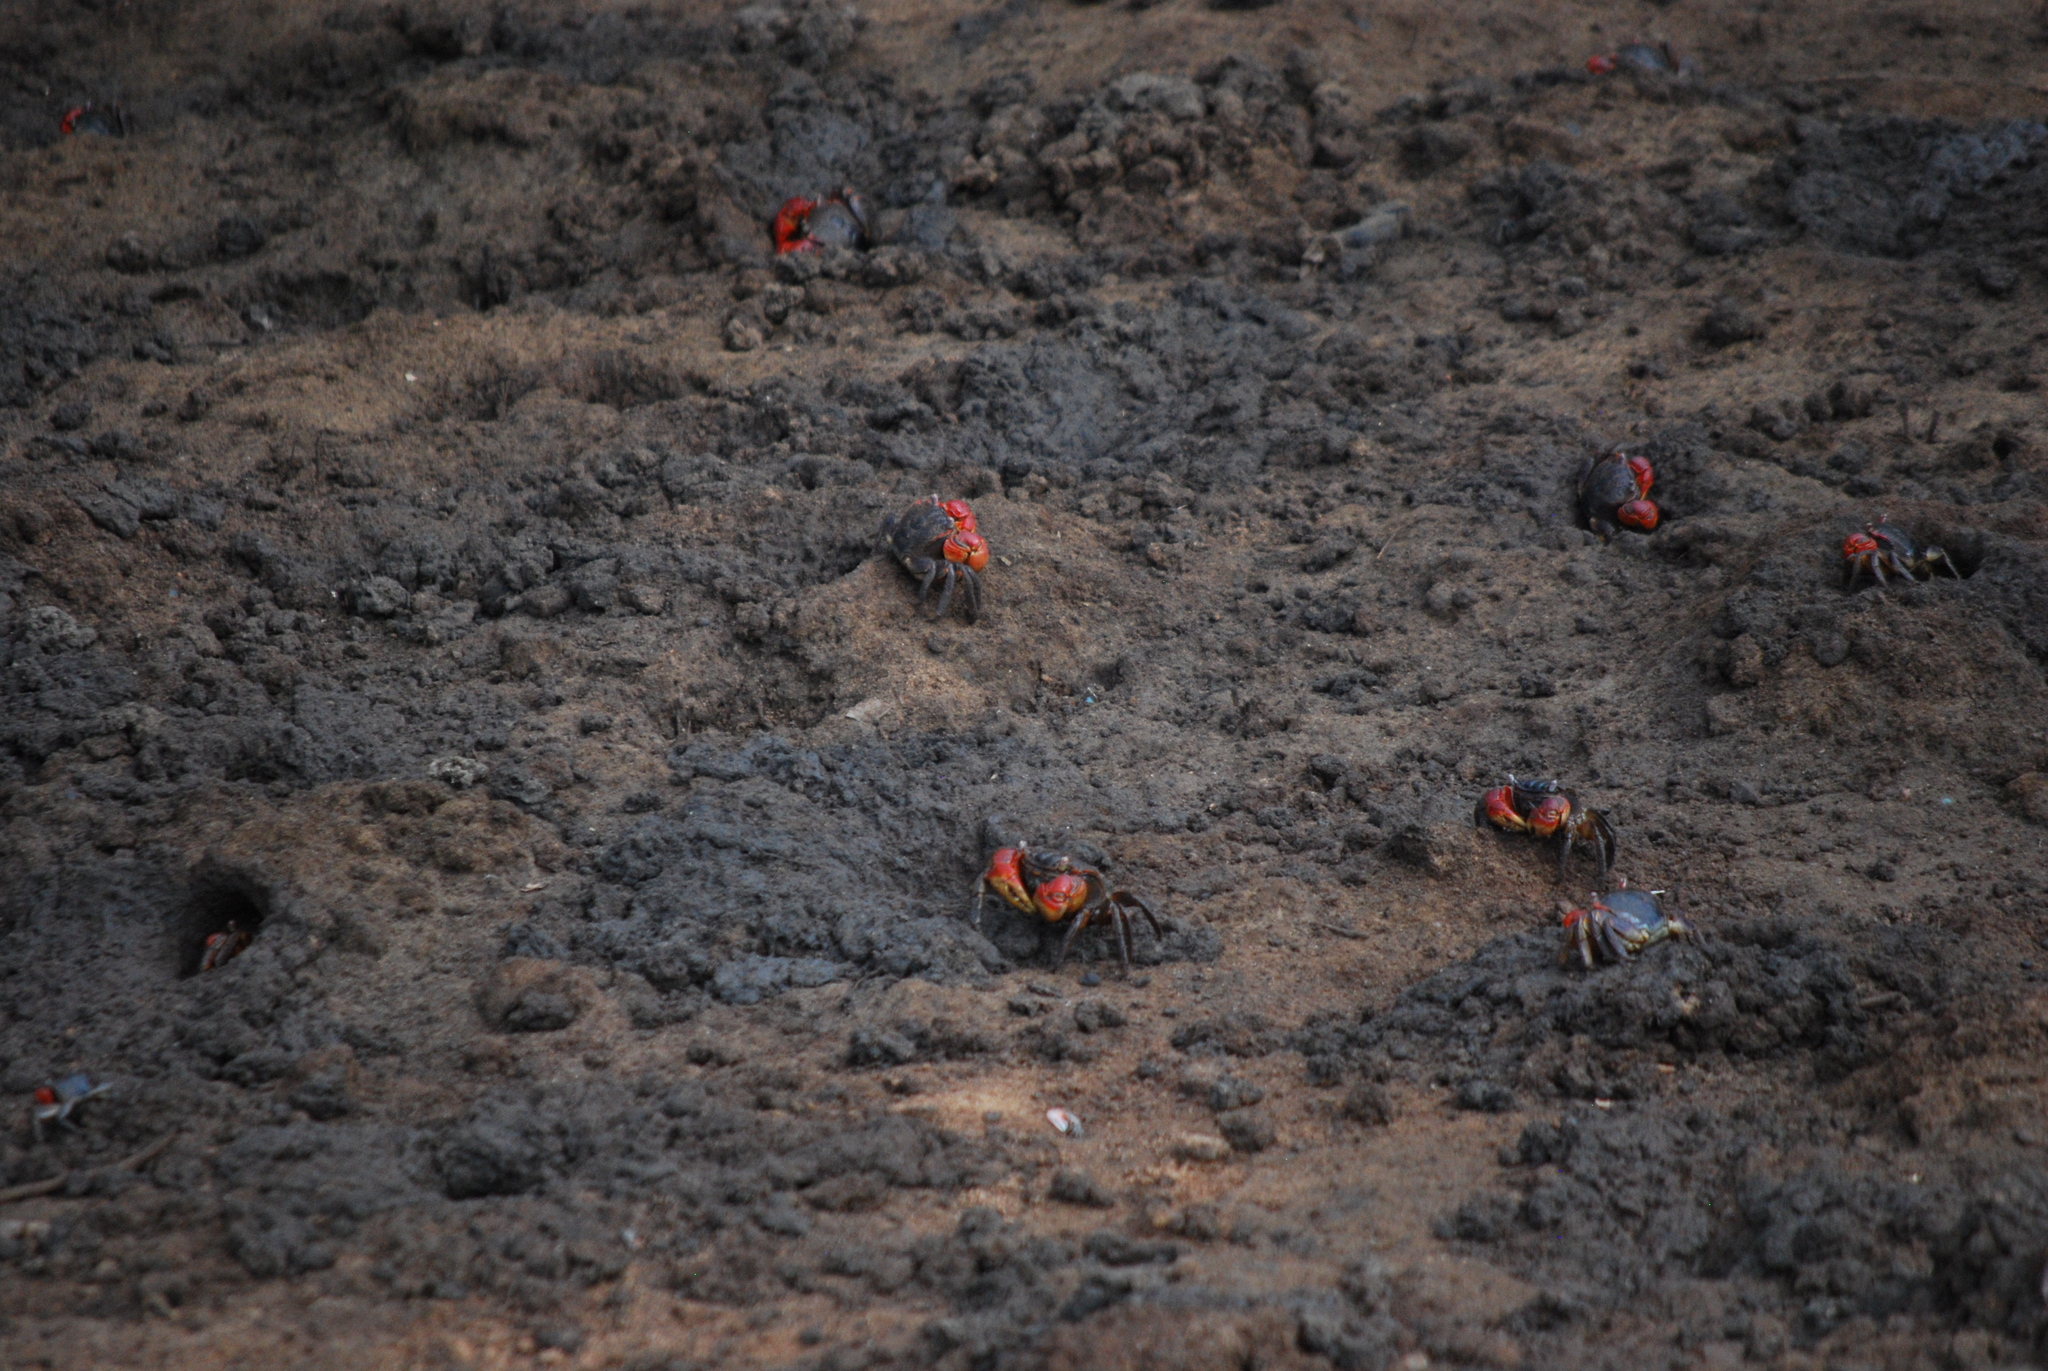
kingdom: Animalia
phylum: Arthropoda
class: Malacostraca
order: Decapoda
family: Sesarmidae
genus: Neosarmatium
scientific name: Neosarmatium africanum
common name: East african red mangrove crab
